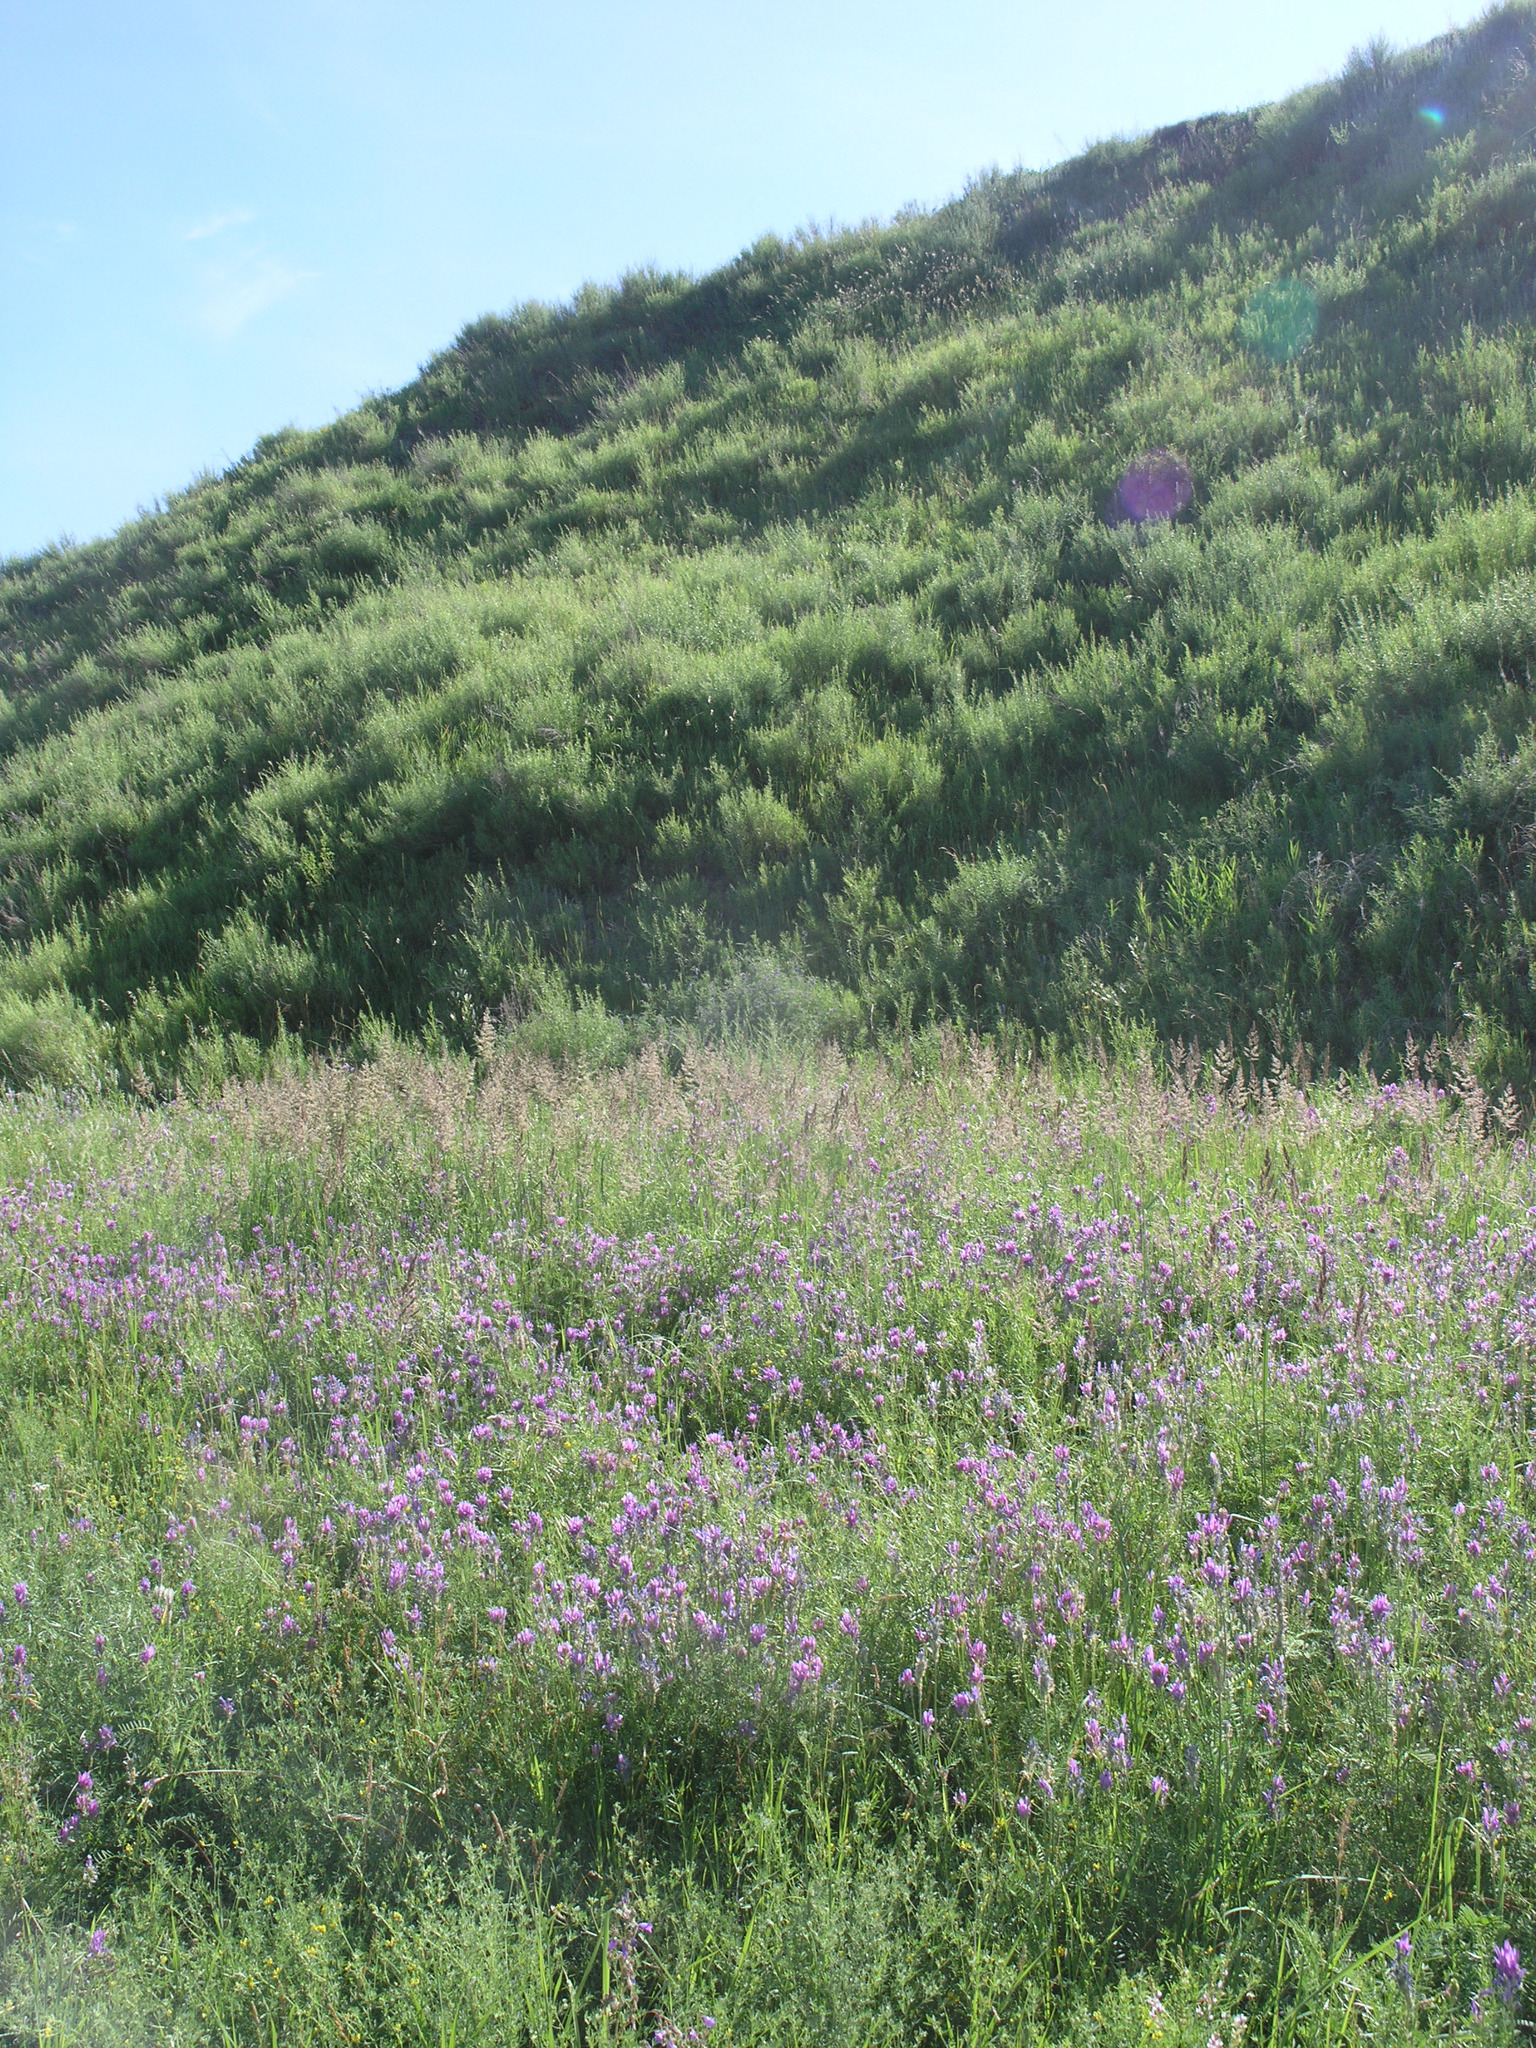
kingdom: Plantae
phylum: Tracheophyta
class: Magnoliopsida
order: Fabales
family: Fabaceae
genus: Astragalus
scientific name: Astragalus onobrychis
